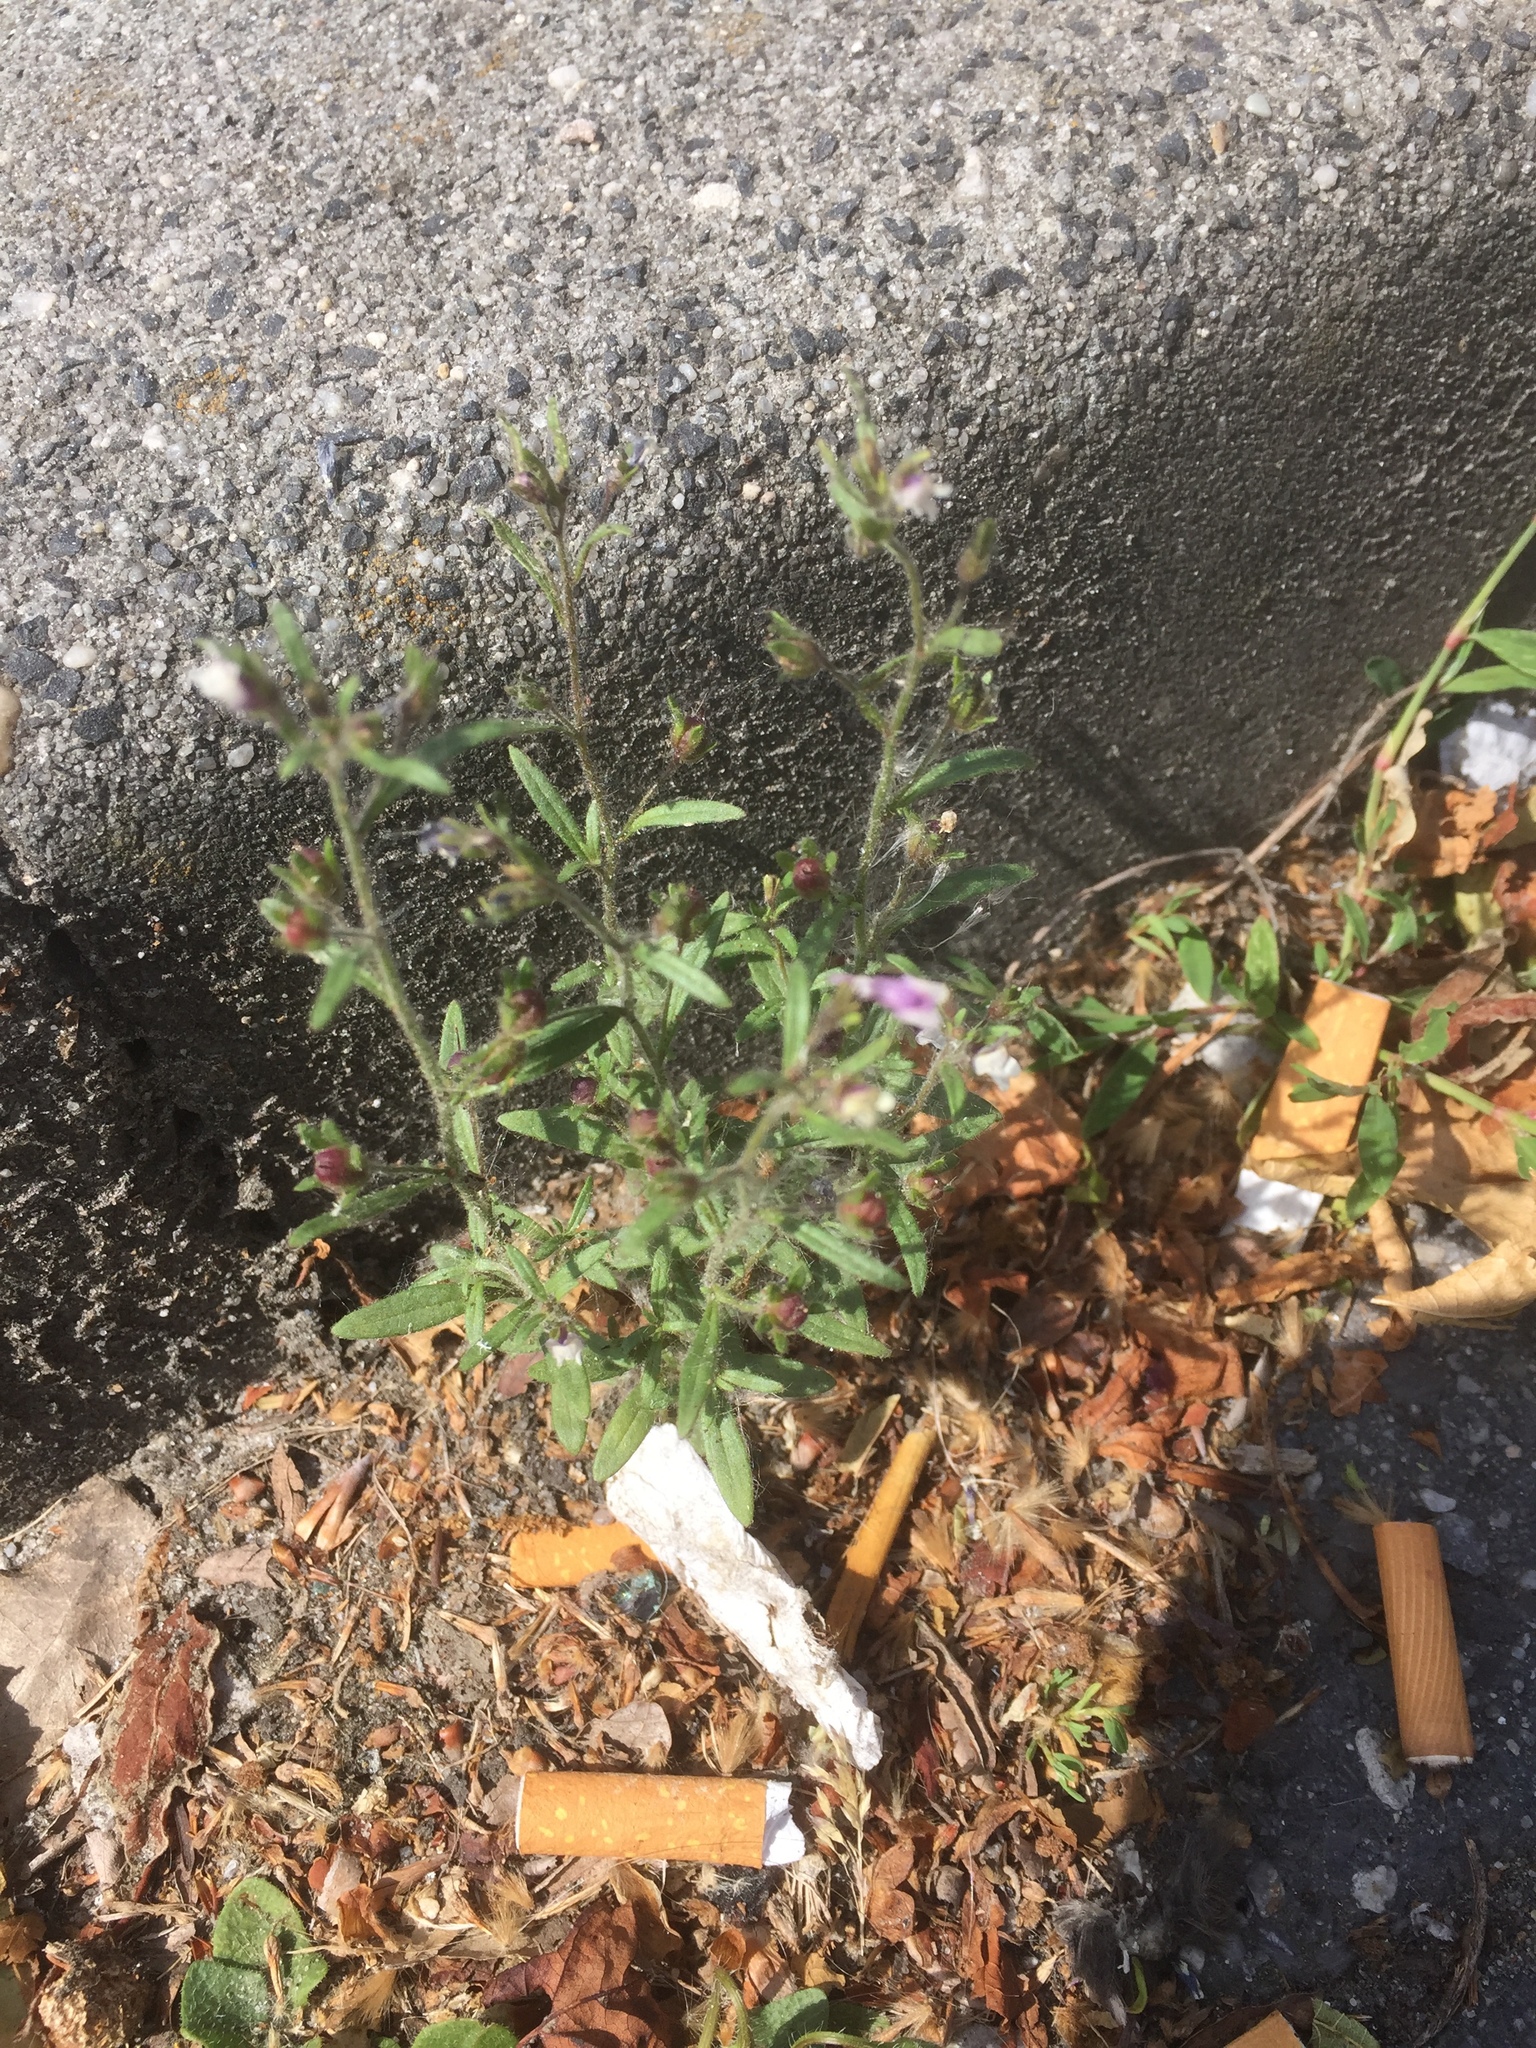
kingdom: Plantae
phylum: Tracheophyta
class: Magnoliopsida
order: Lamiales
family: Plantaginaceae
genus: Chaenorhinum
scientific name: Chaenorhinum minus
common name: Dwarf snapdragon
